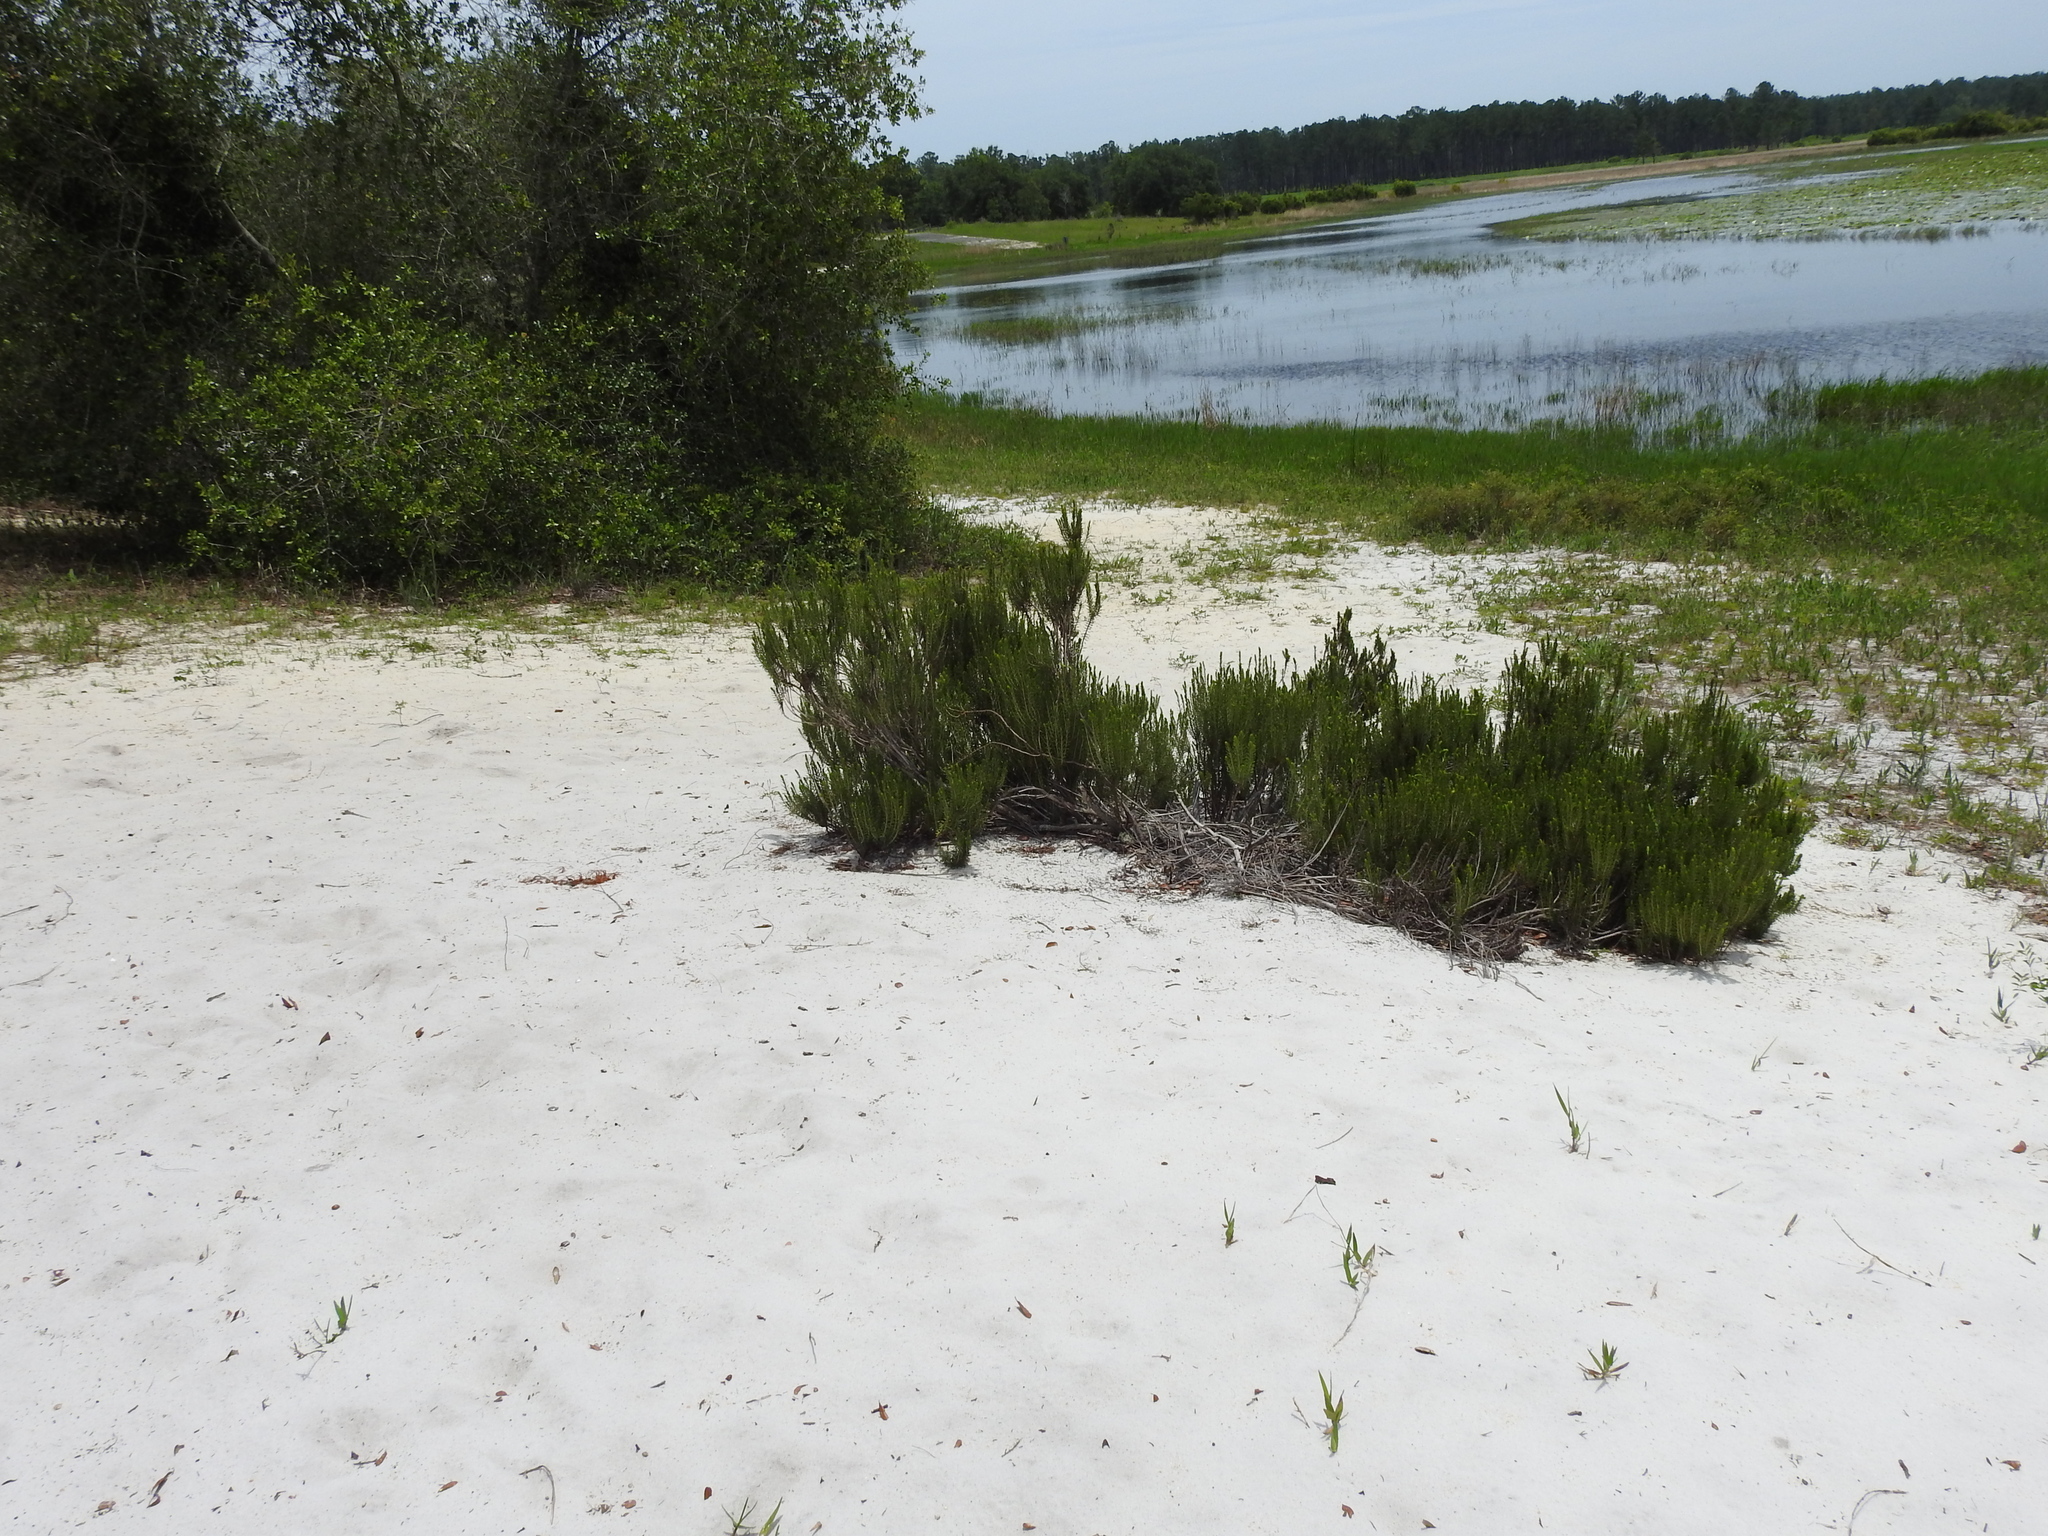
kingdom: Animalia
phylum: Arthropoda
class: Insecta
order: Coleoptera
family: Carabidae
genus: Ellipsoptera
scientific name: Ellipsoptera hirtilabris
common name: Moustached tiger beetle
